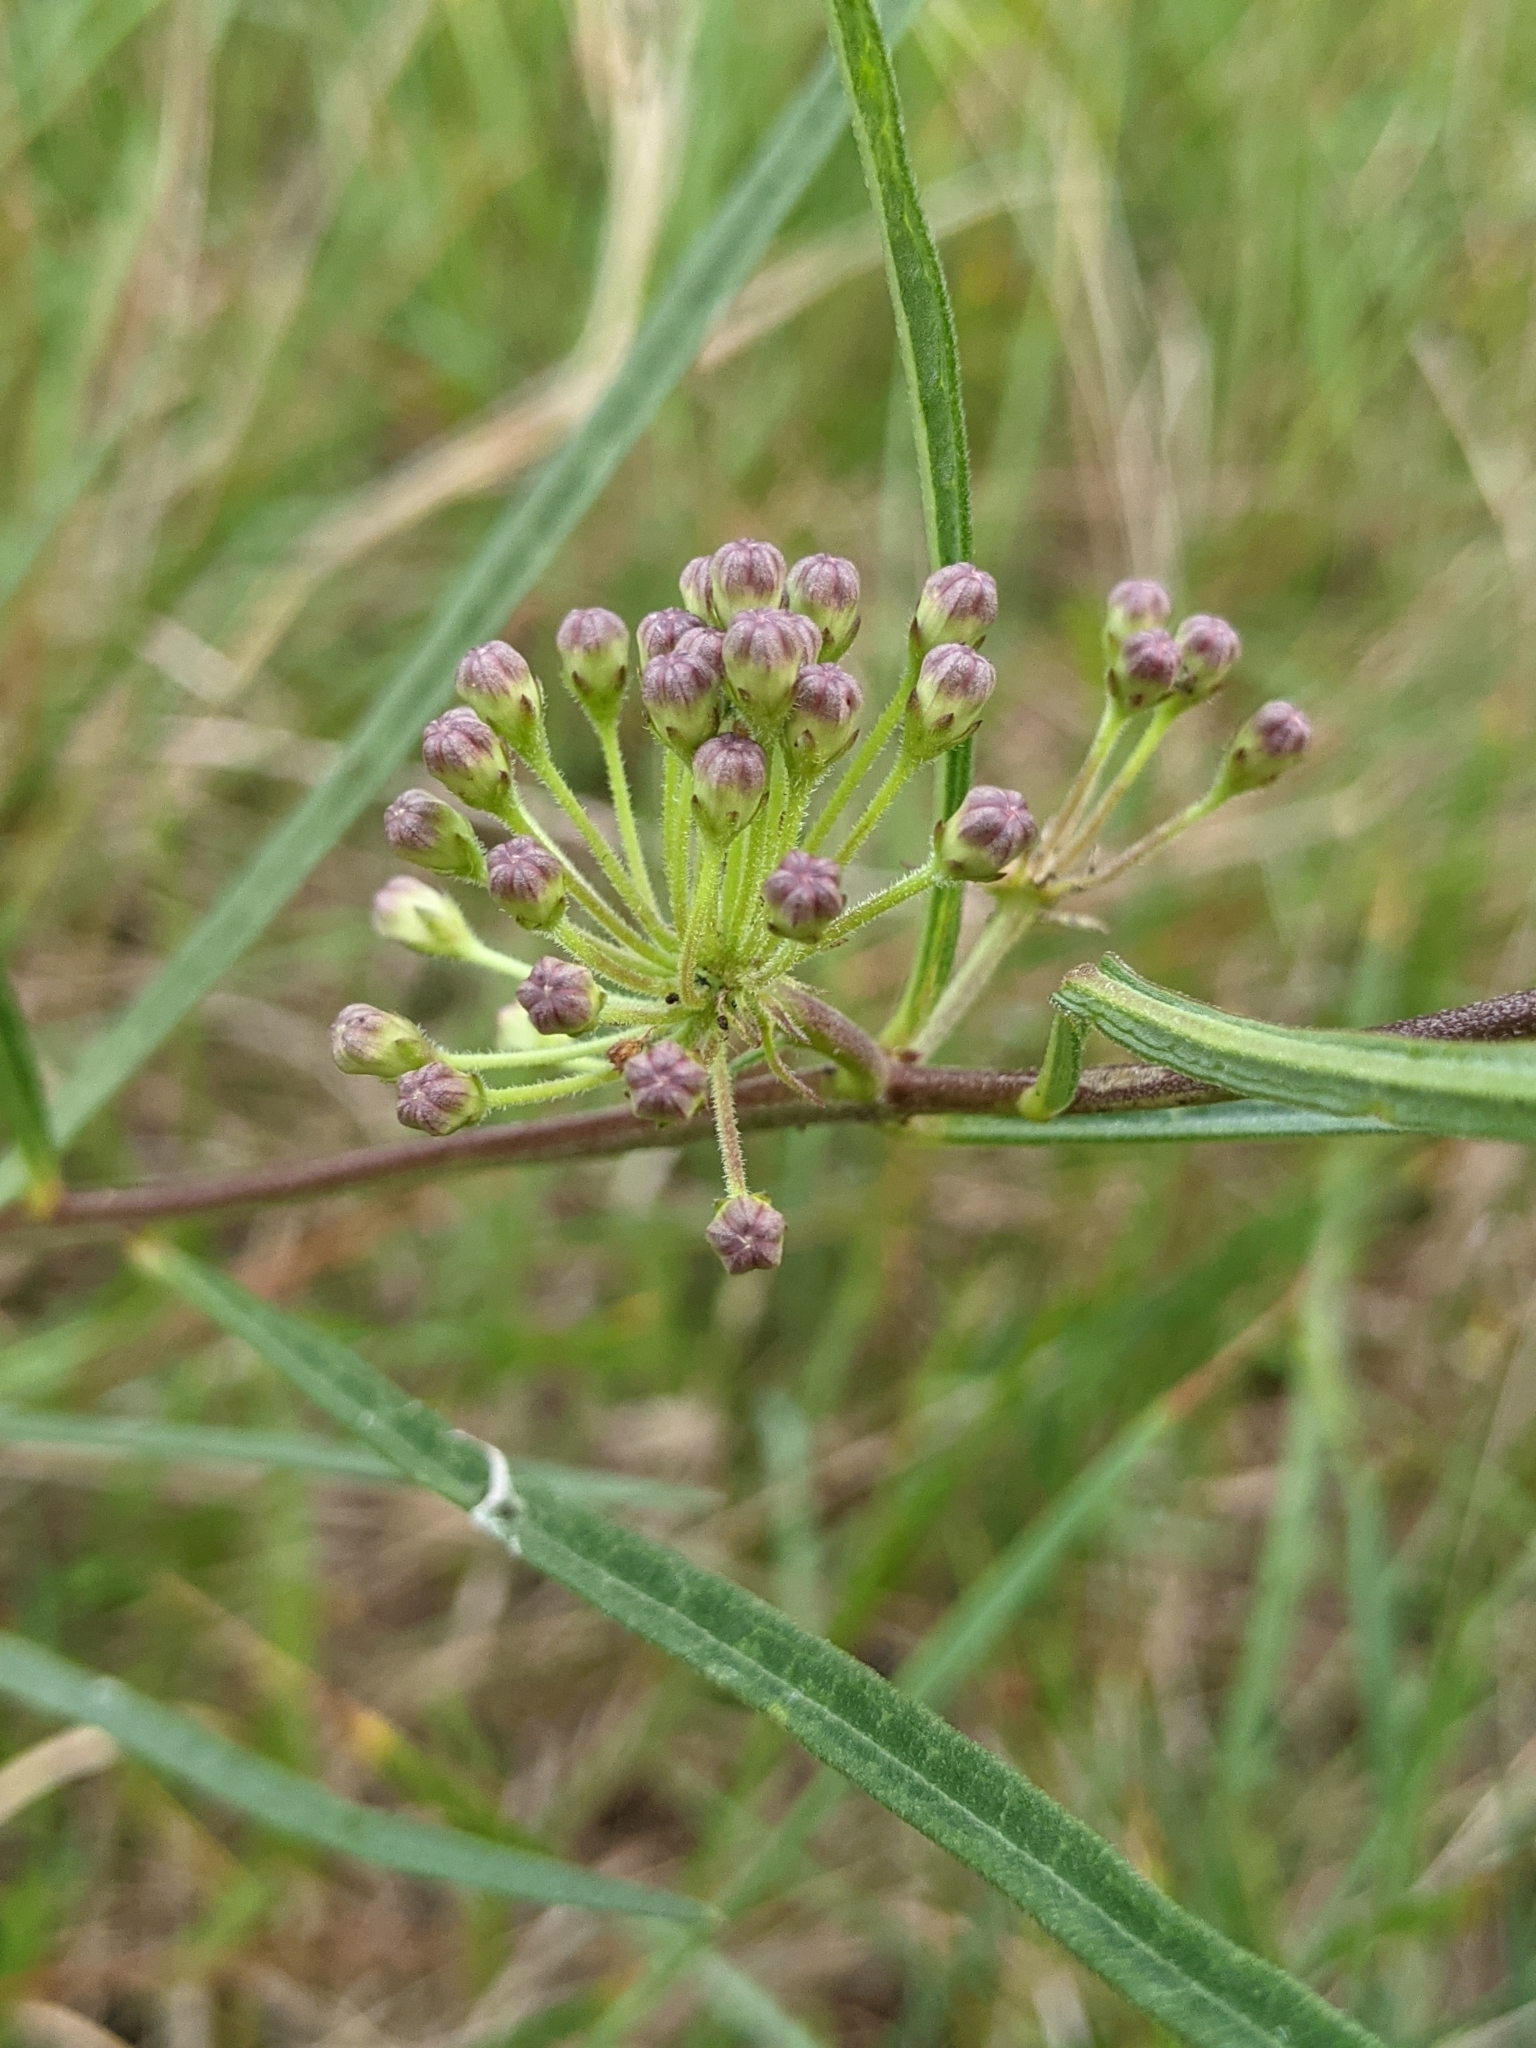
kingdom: Plantae
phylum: Tracheophyta
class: Magnoliopsida
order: Gentianales
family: Apocynaceae
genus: Asclepias
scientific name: Asclepias hirtella
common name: Prairie milkweed
